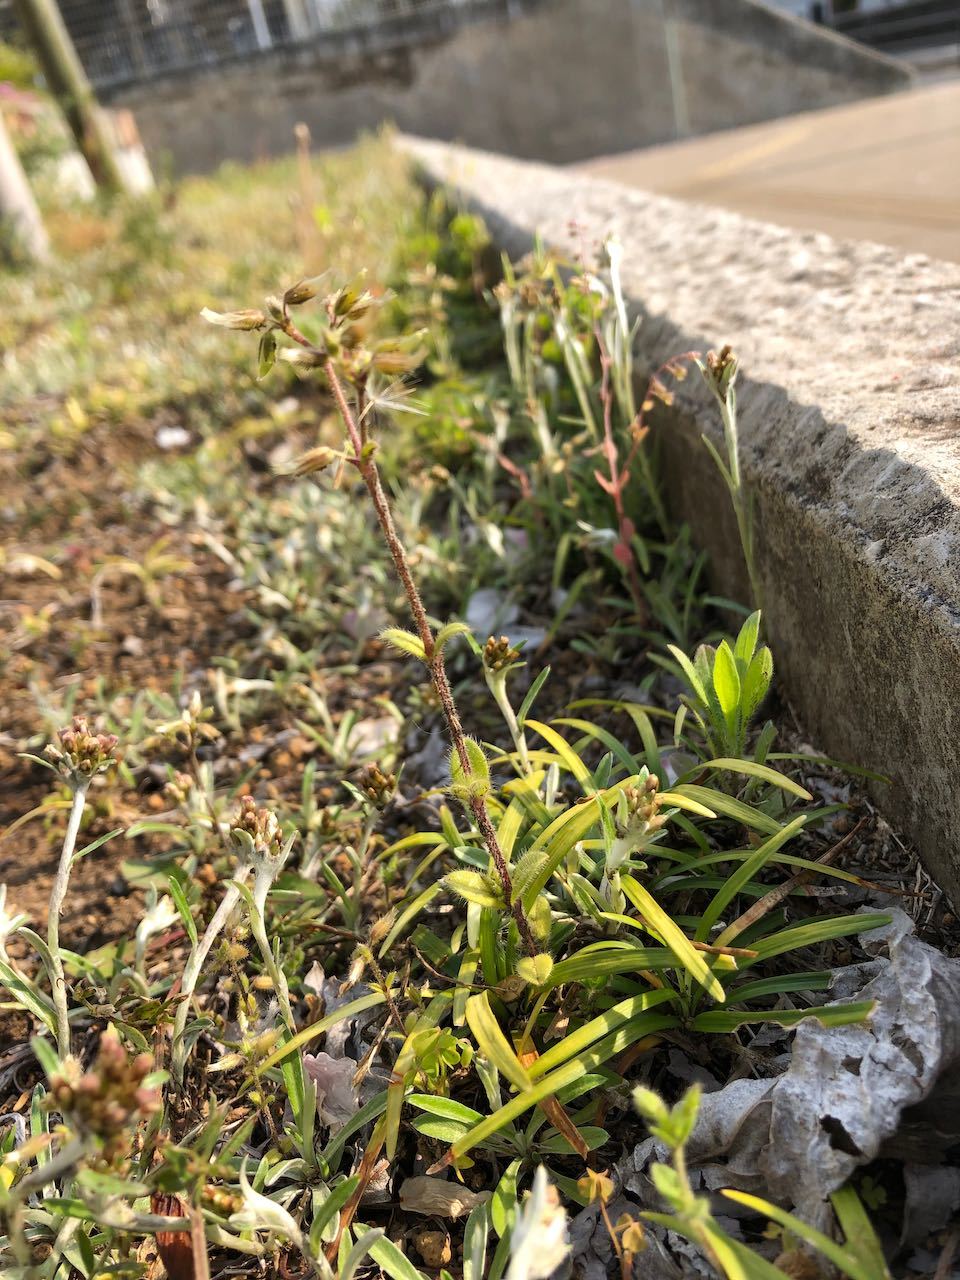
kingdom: Plantae
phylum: Tracheophyta
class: Magnoliopsida
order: Caryophyllales
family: Caryophyllaceae
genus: Cerastium
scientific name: Cerastium glomeratum
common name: Sticky chickweed
